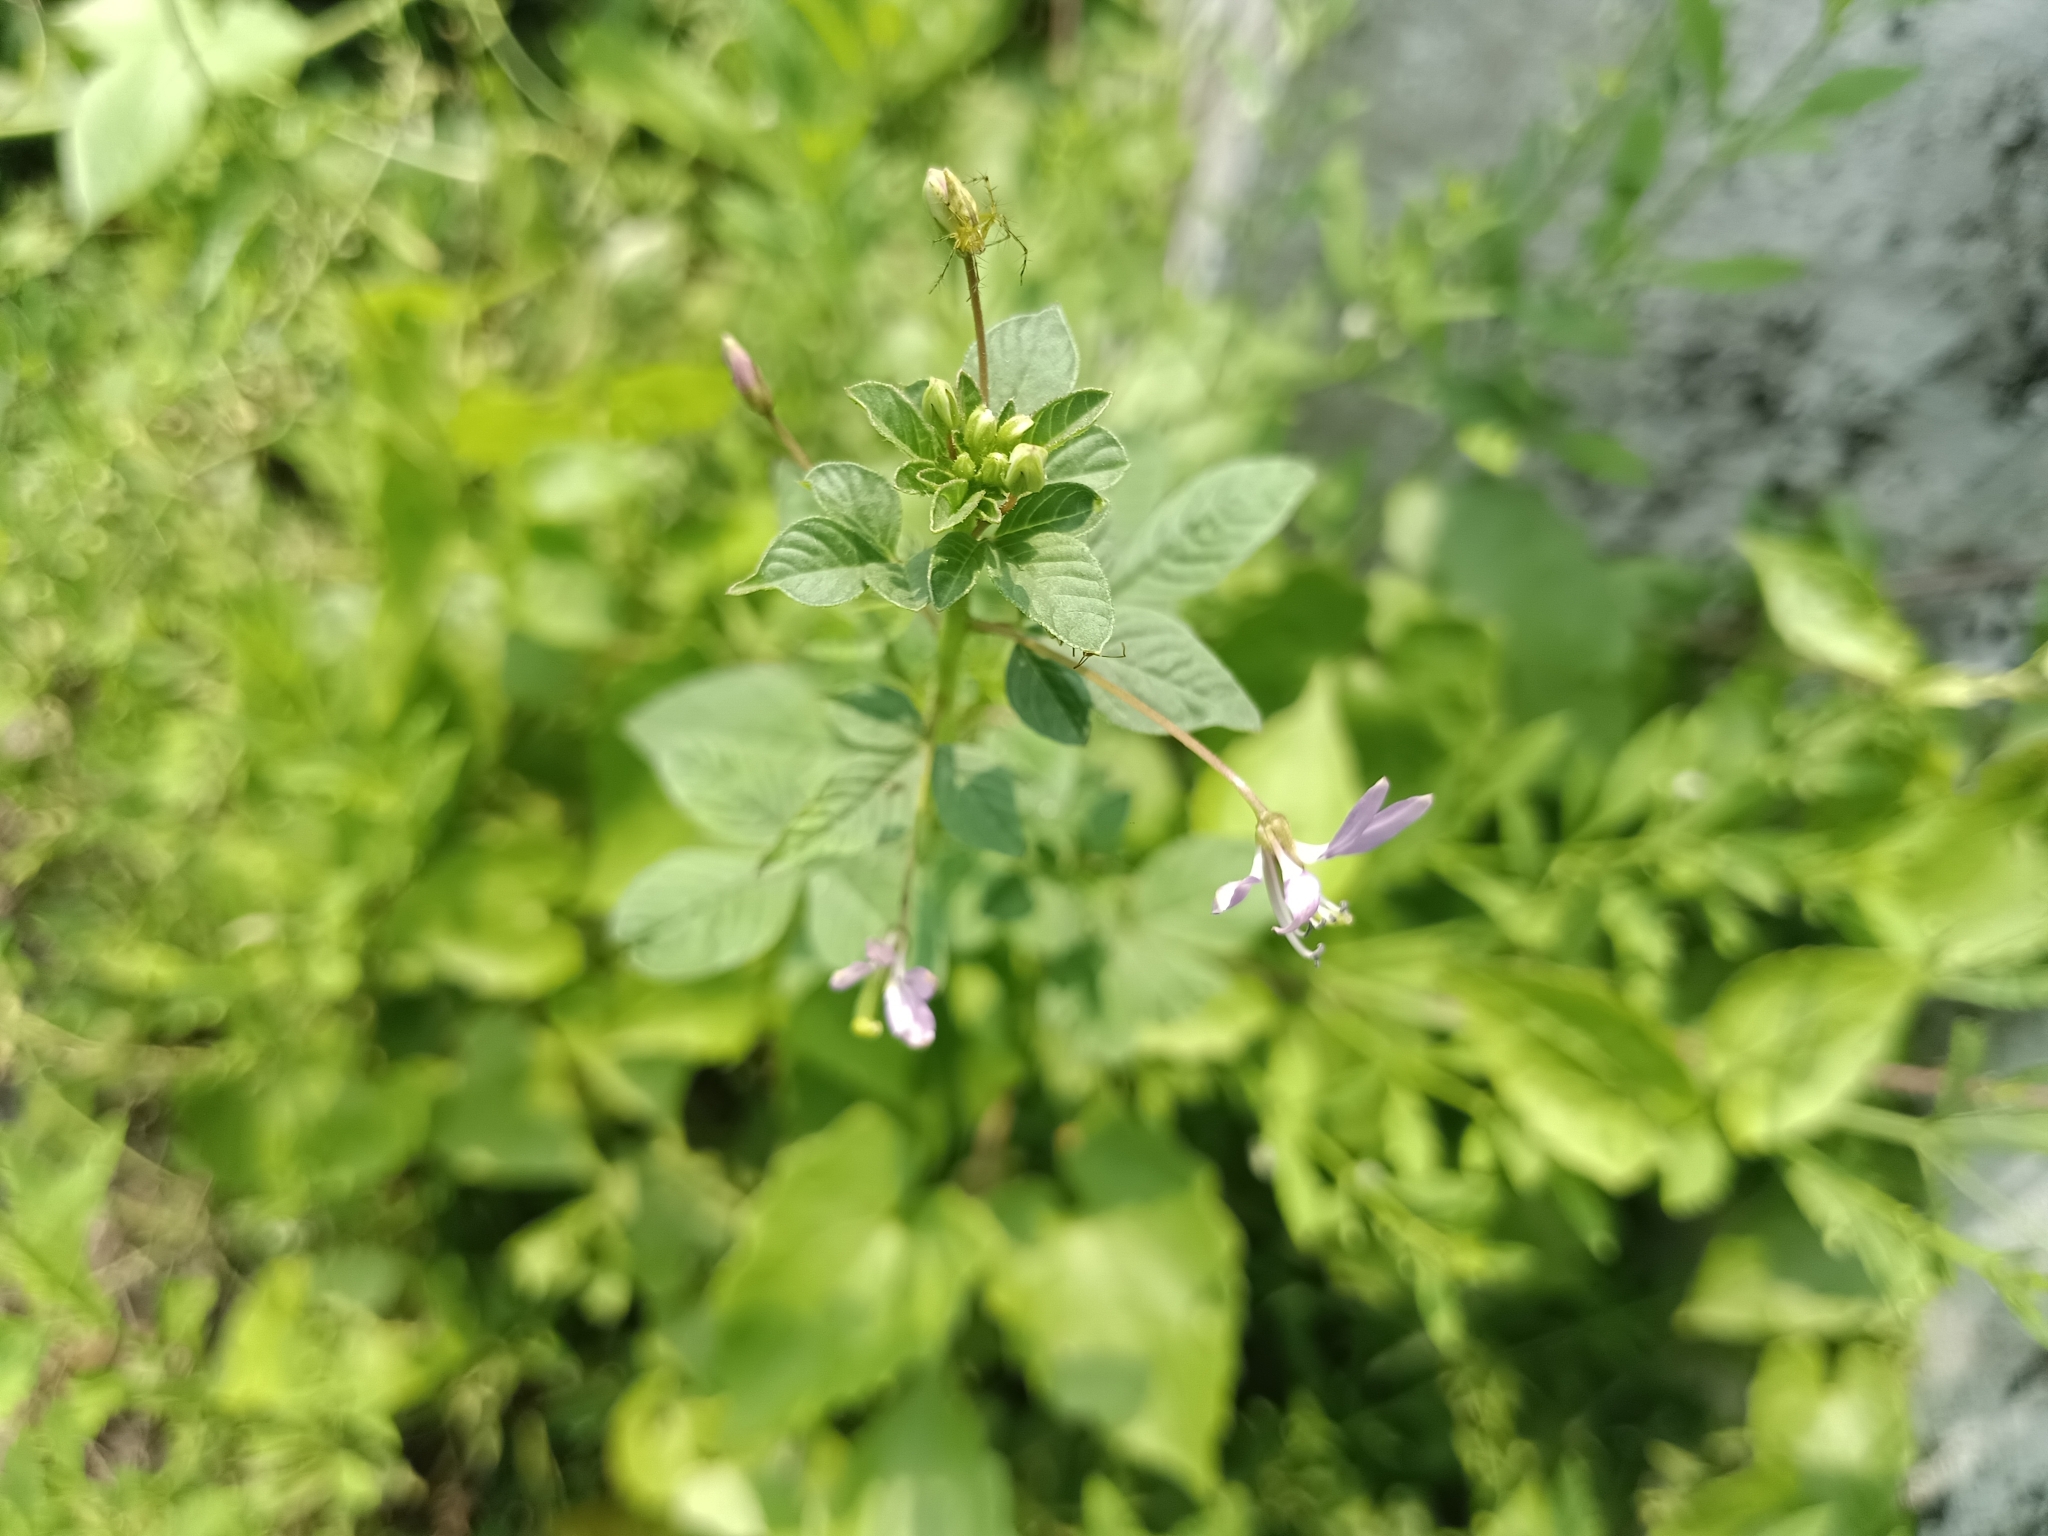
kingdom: Plantae
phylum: Tracheophyta
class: Magnoliopsida
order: Brassicales
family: Cleomaceae
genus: Sieruela
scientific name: Sieruela rutidosperma
